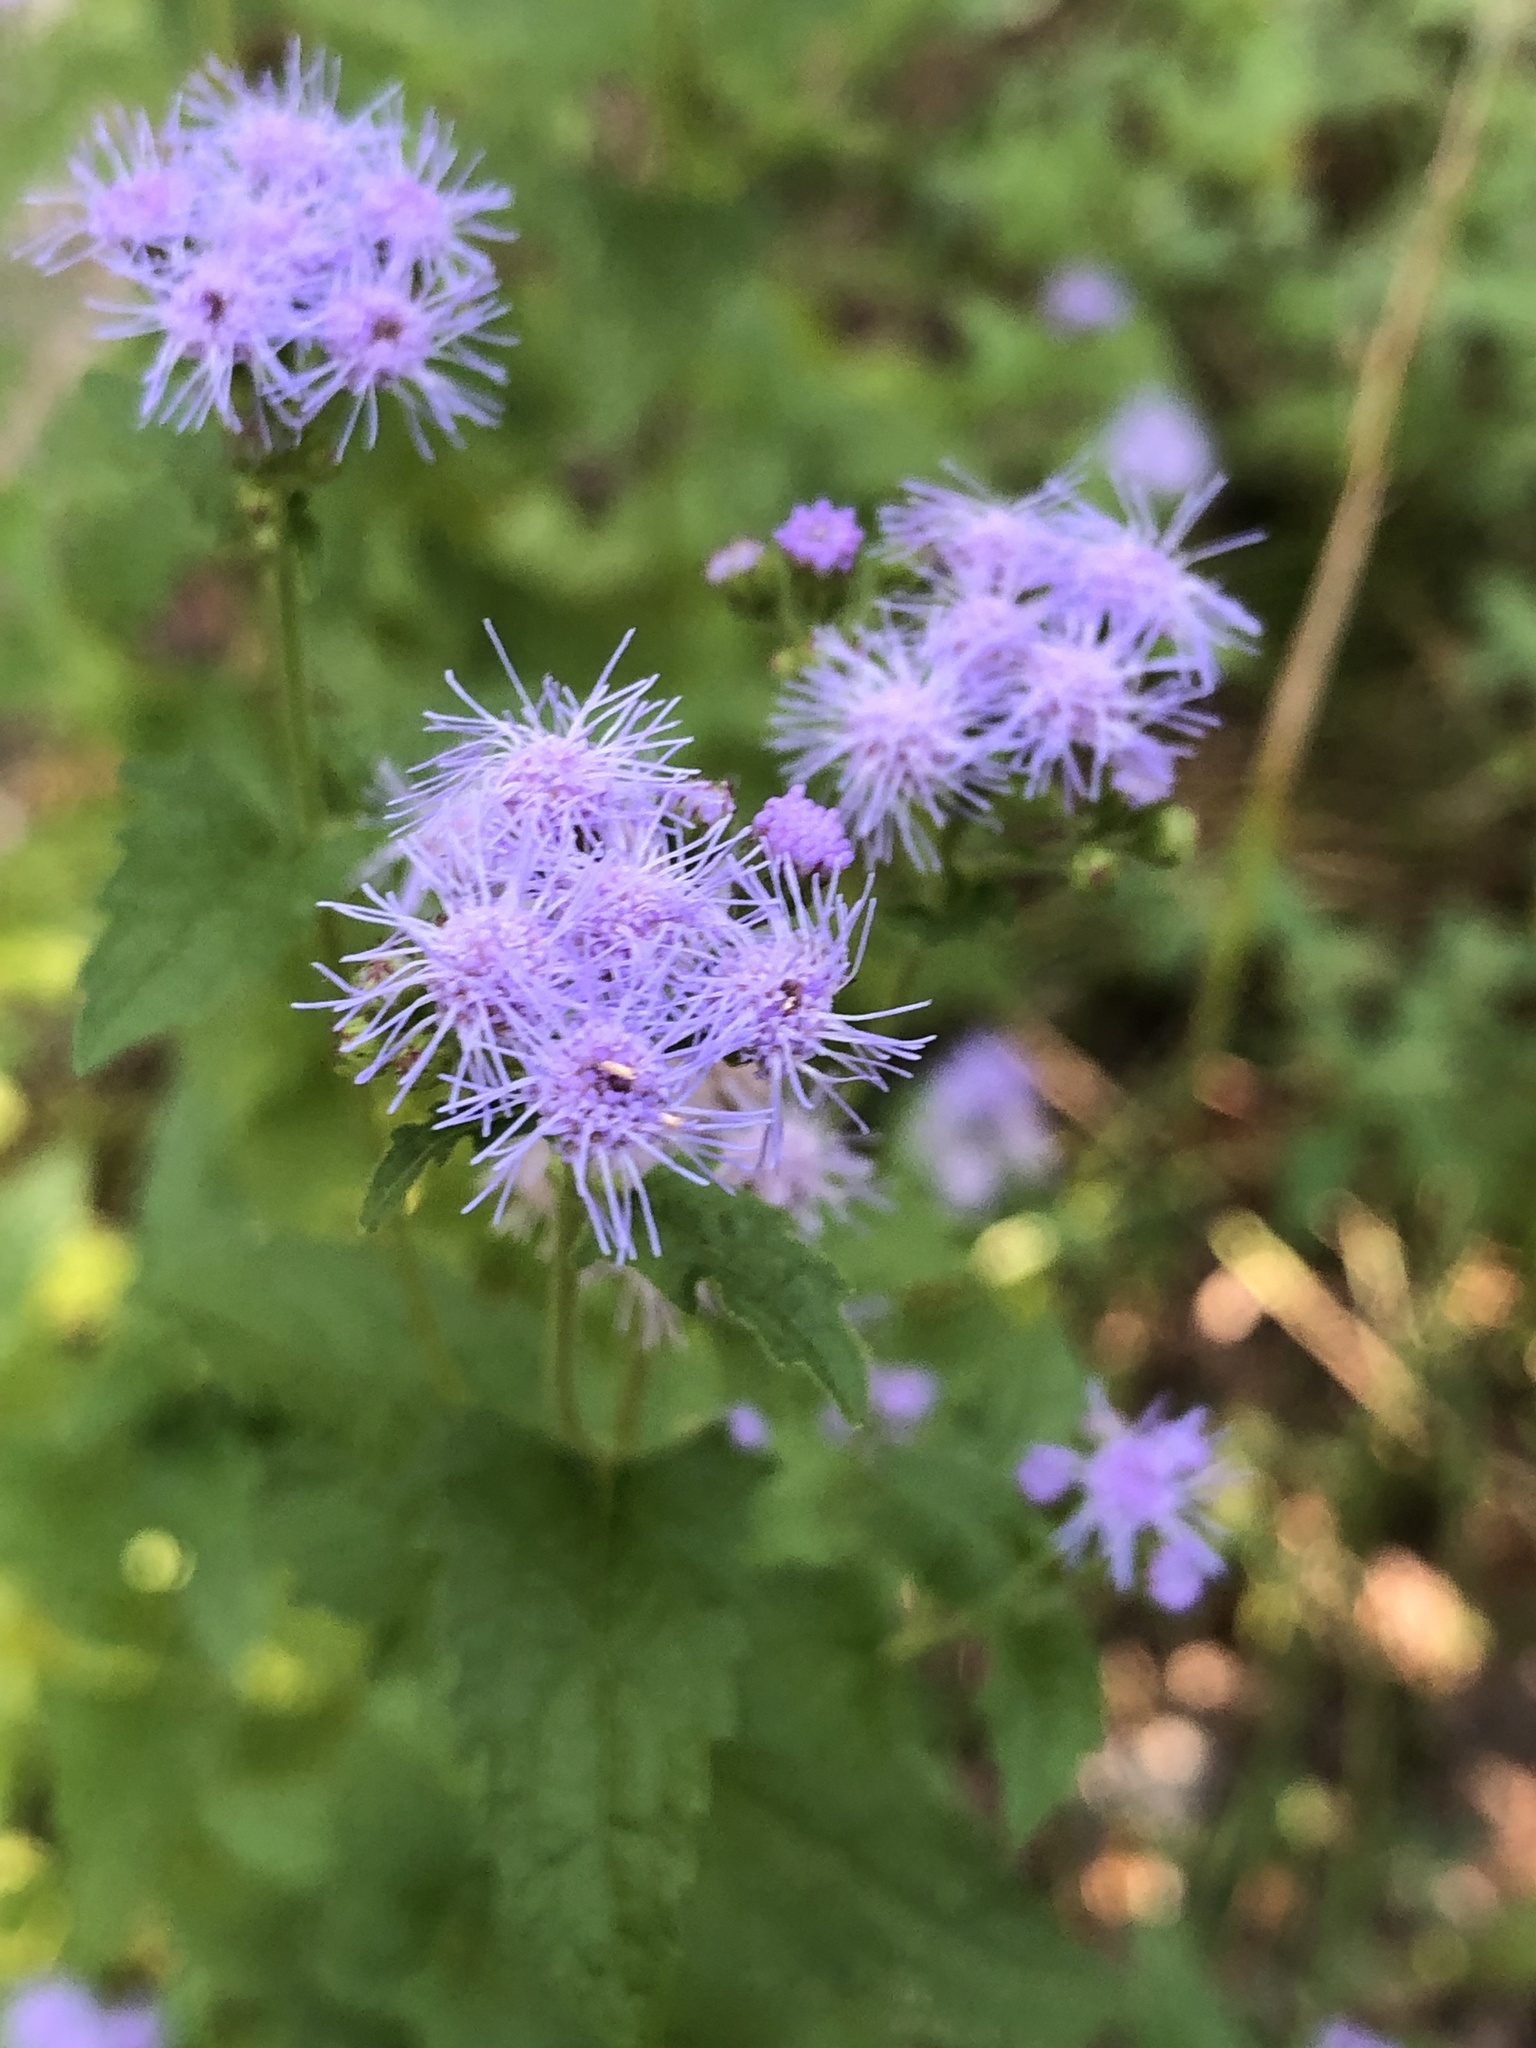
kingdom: Plantae
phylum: Tracheophyta
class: Magnoliopsida
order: Asterales
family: Asteraceae
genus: Conoclinium
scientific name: Conoclinium coelestinum
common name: Blue mistflower
